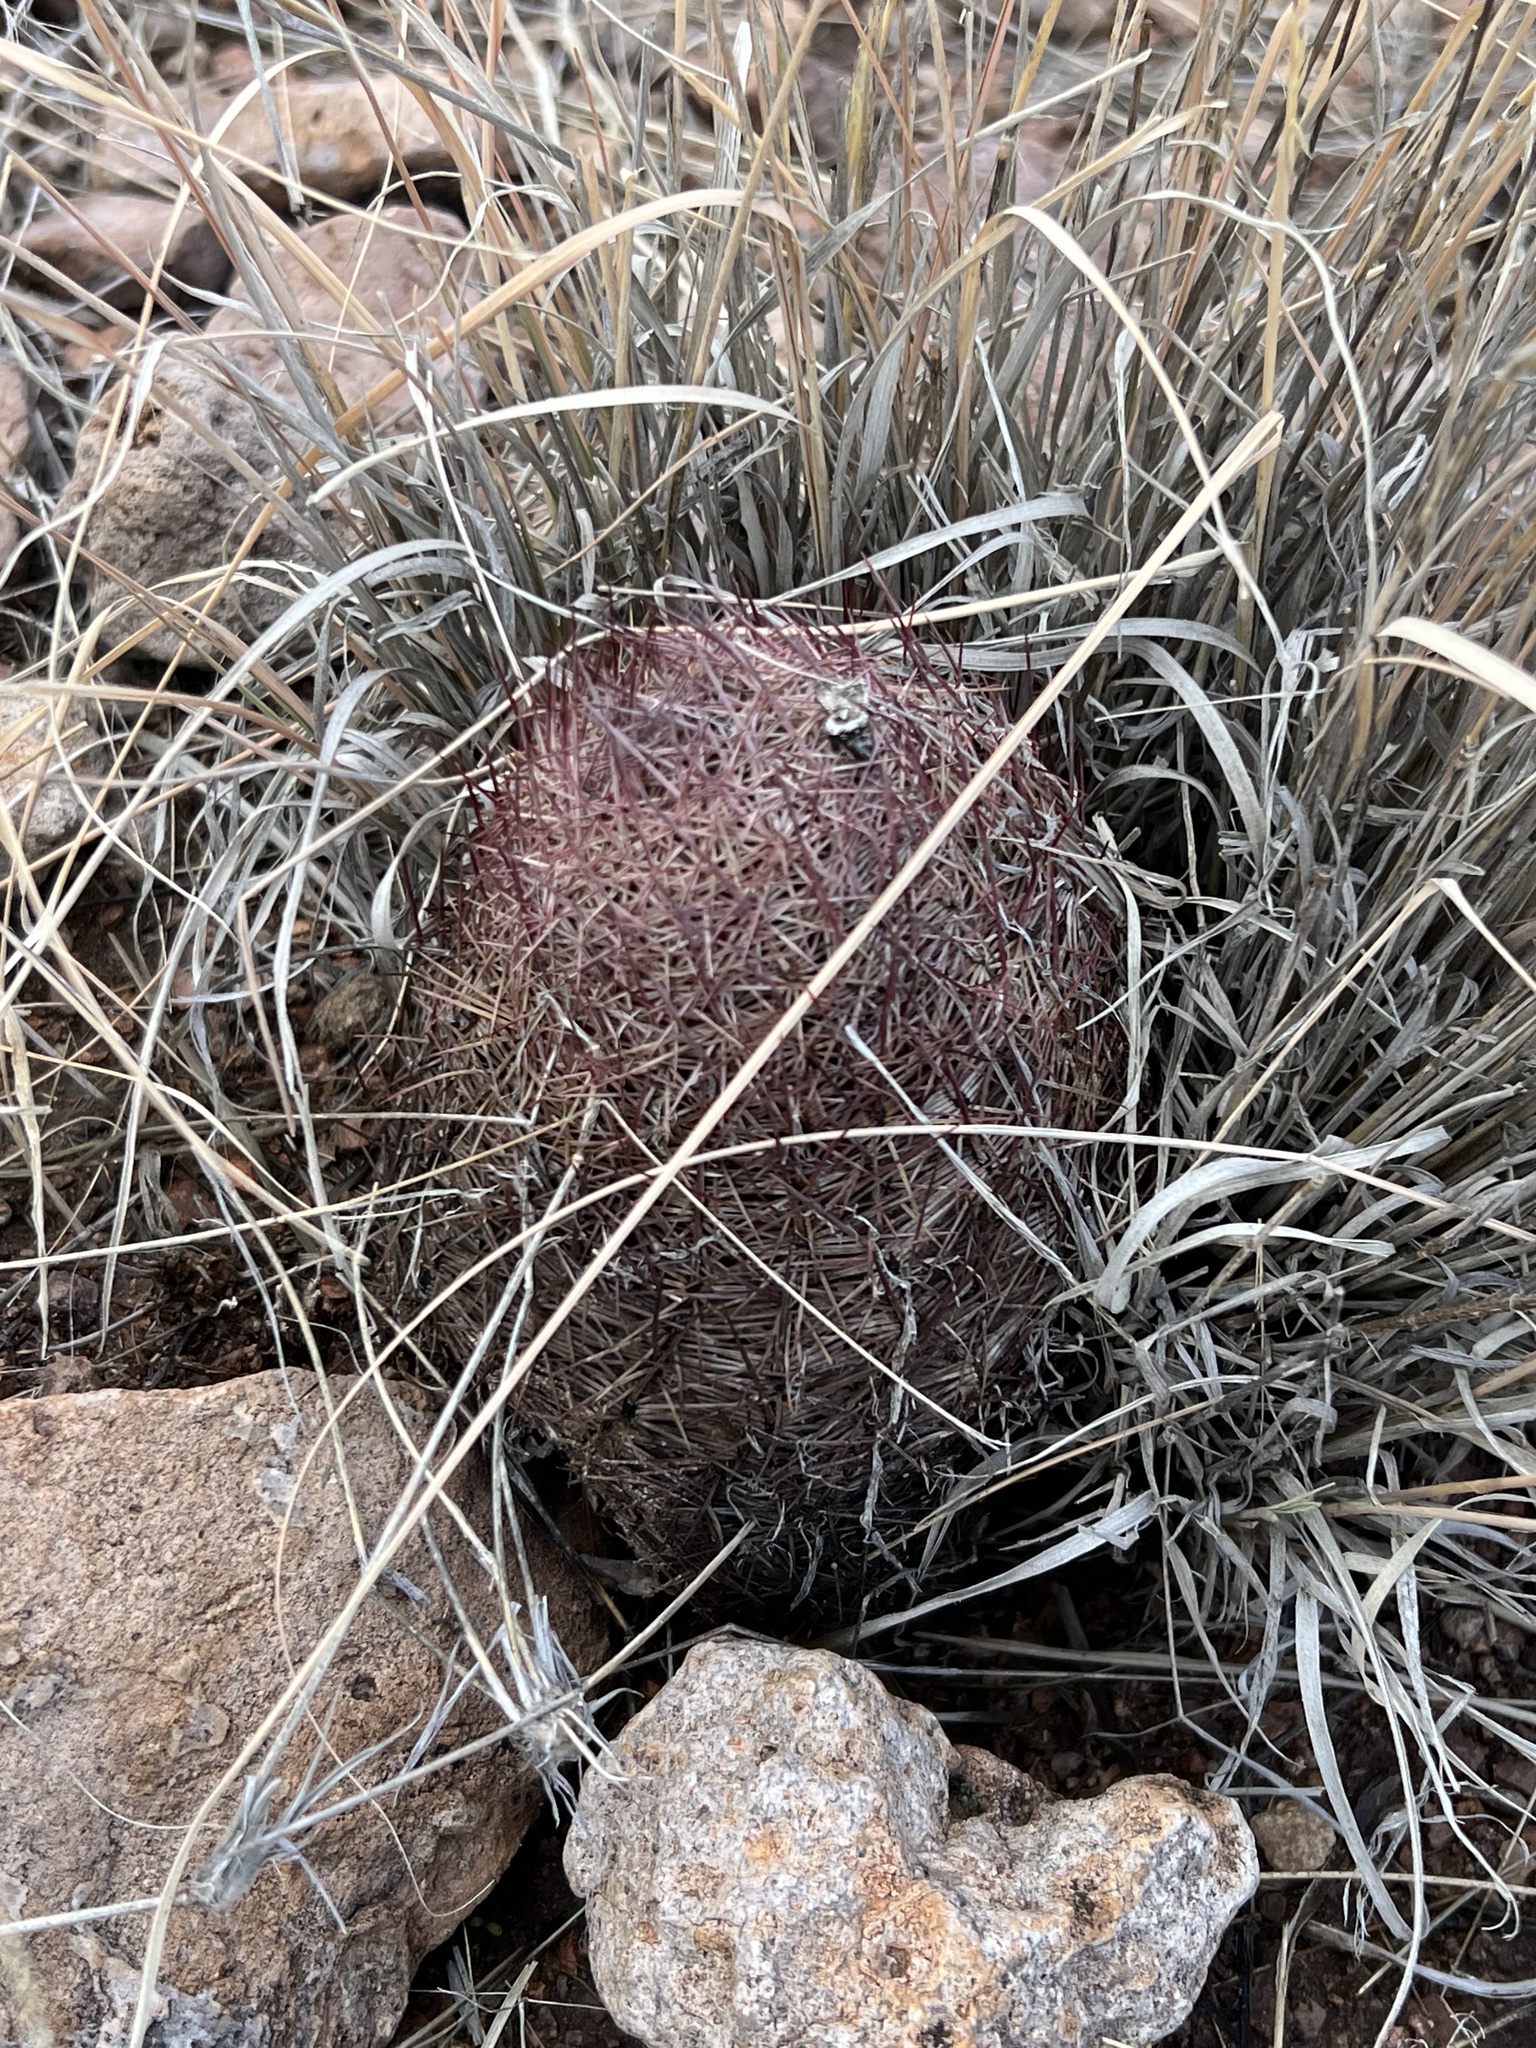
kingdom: Plantae
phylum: Tracheophyta
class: Magnoliopsida
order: Caryophyllales
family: Cactaceae
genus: Sclerocactus
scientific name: Sclerocactus johnsonii
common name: Eight-spine fishhook cactus
